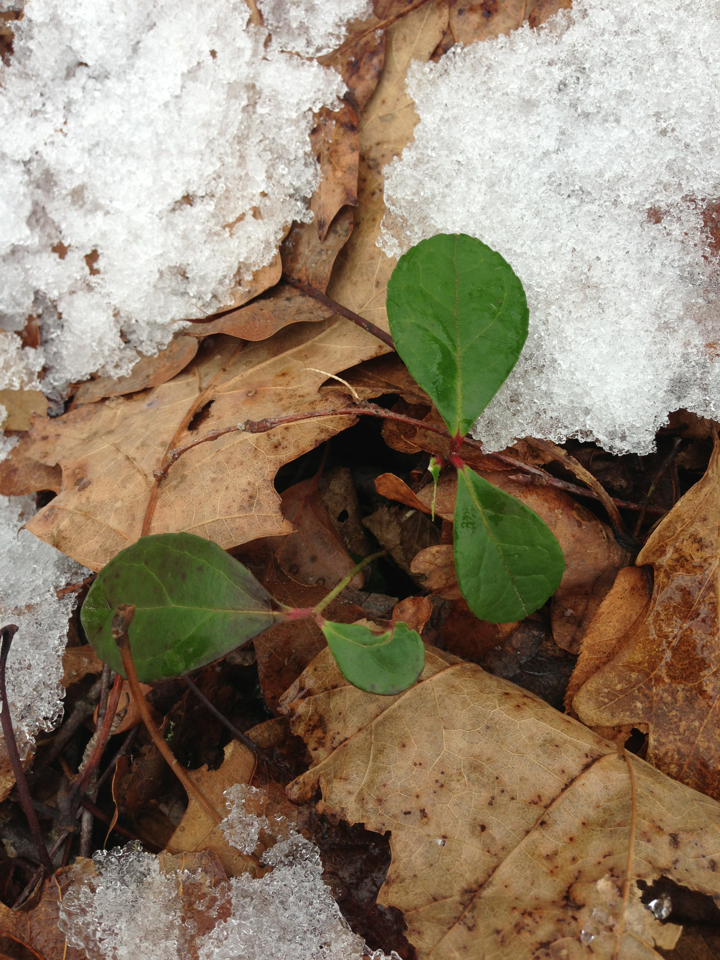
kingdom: Plantae
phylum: Tracheophyta
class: Magnoliopsida
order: Ericales
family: Ericaceae
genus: Gaultheria
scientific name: Gaultheria procumbens
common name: Checkerberry
